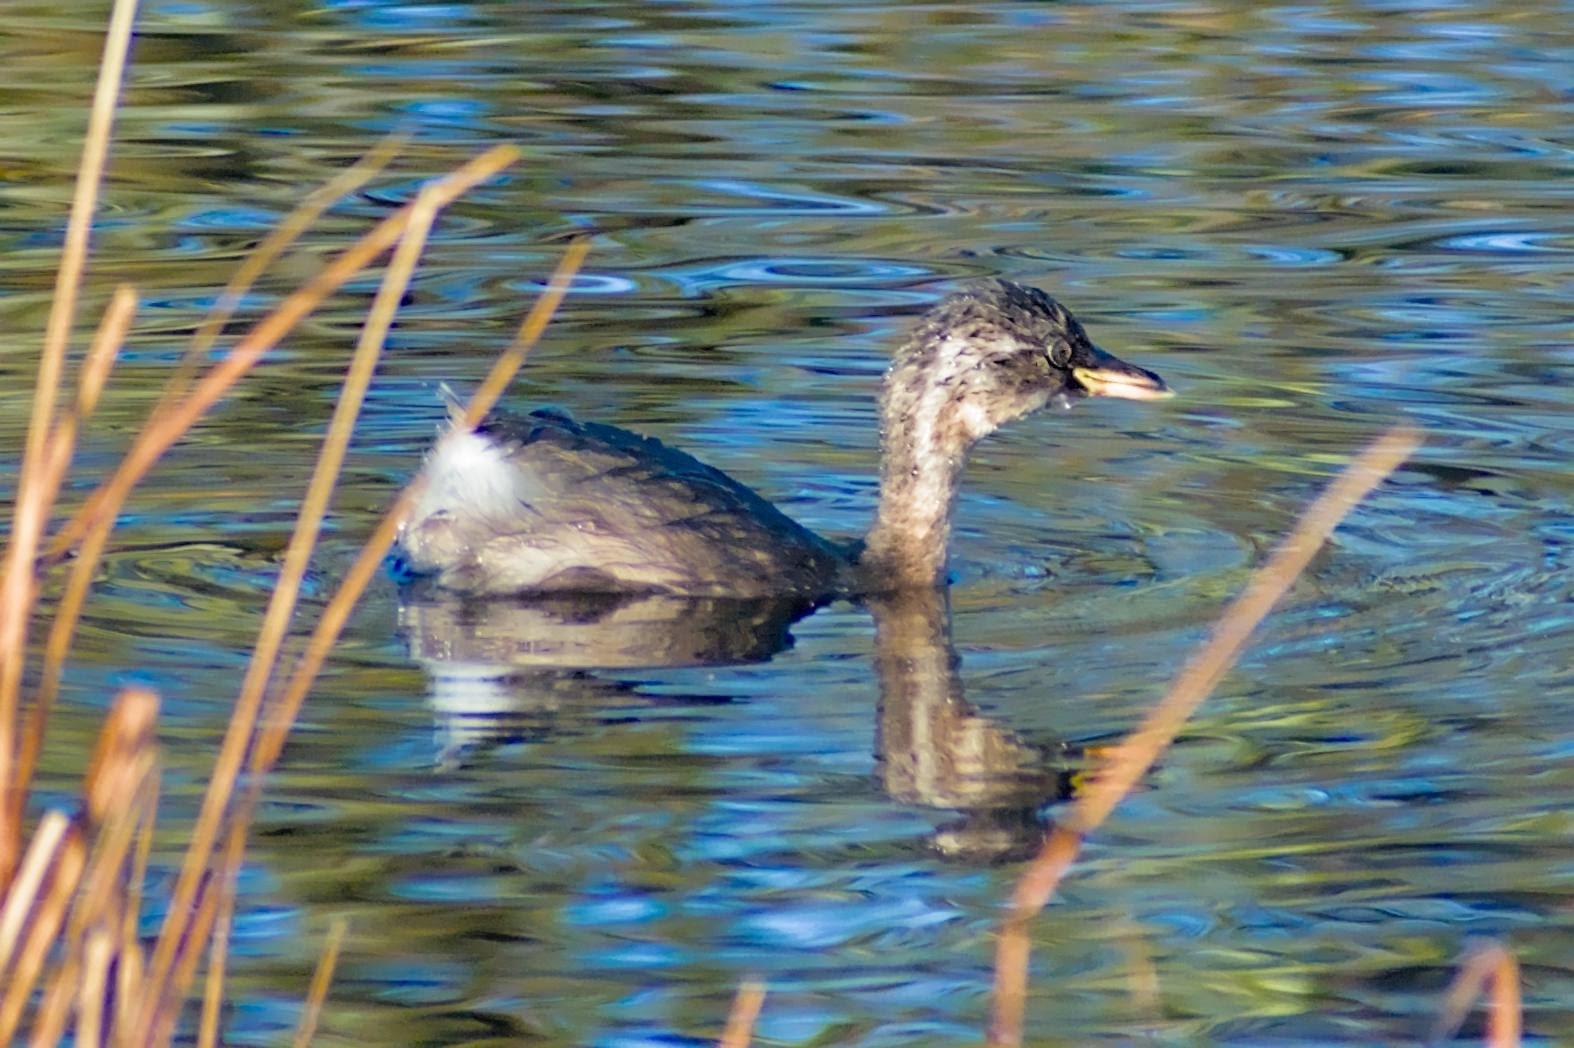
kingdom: Animalia
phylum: Chordata
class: Aves
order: Podicipediformes
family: Podicipedidae
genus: Tachybaptus
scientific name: Tachybaptus ruficollis
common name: Little grebe
